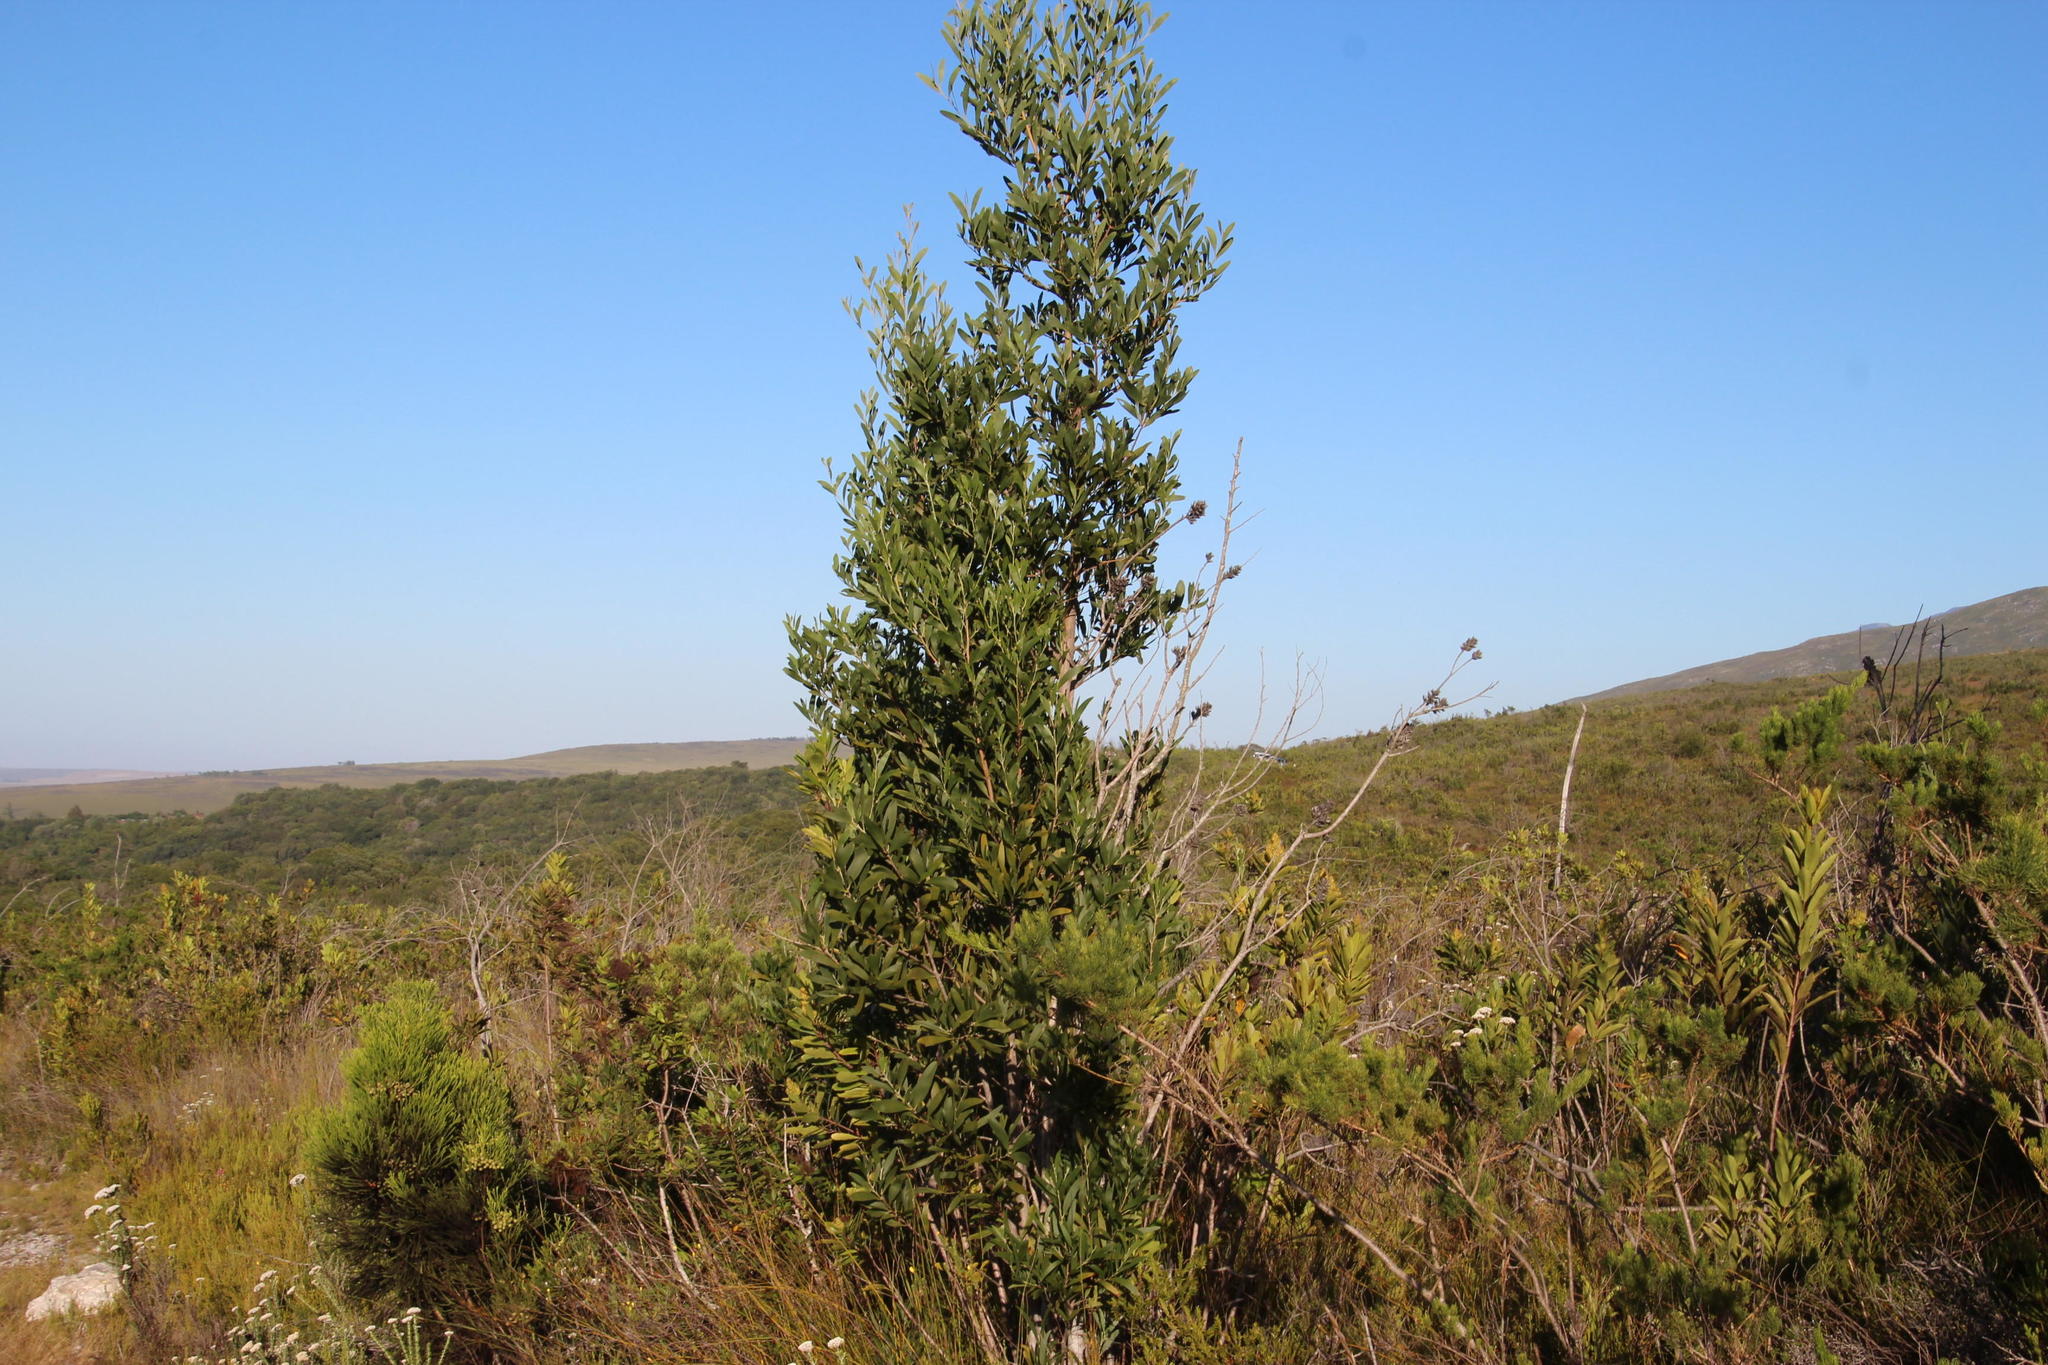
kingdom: Plantae
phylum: Tracheophyta
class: Magnoliopsida
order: Fabales
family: Fabaceae
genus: Acacia
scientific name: Acacia melanoxylon
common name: Blackwood
